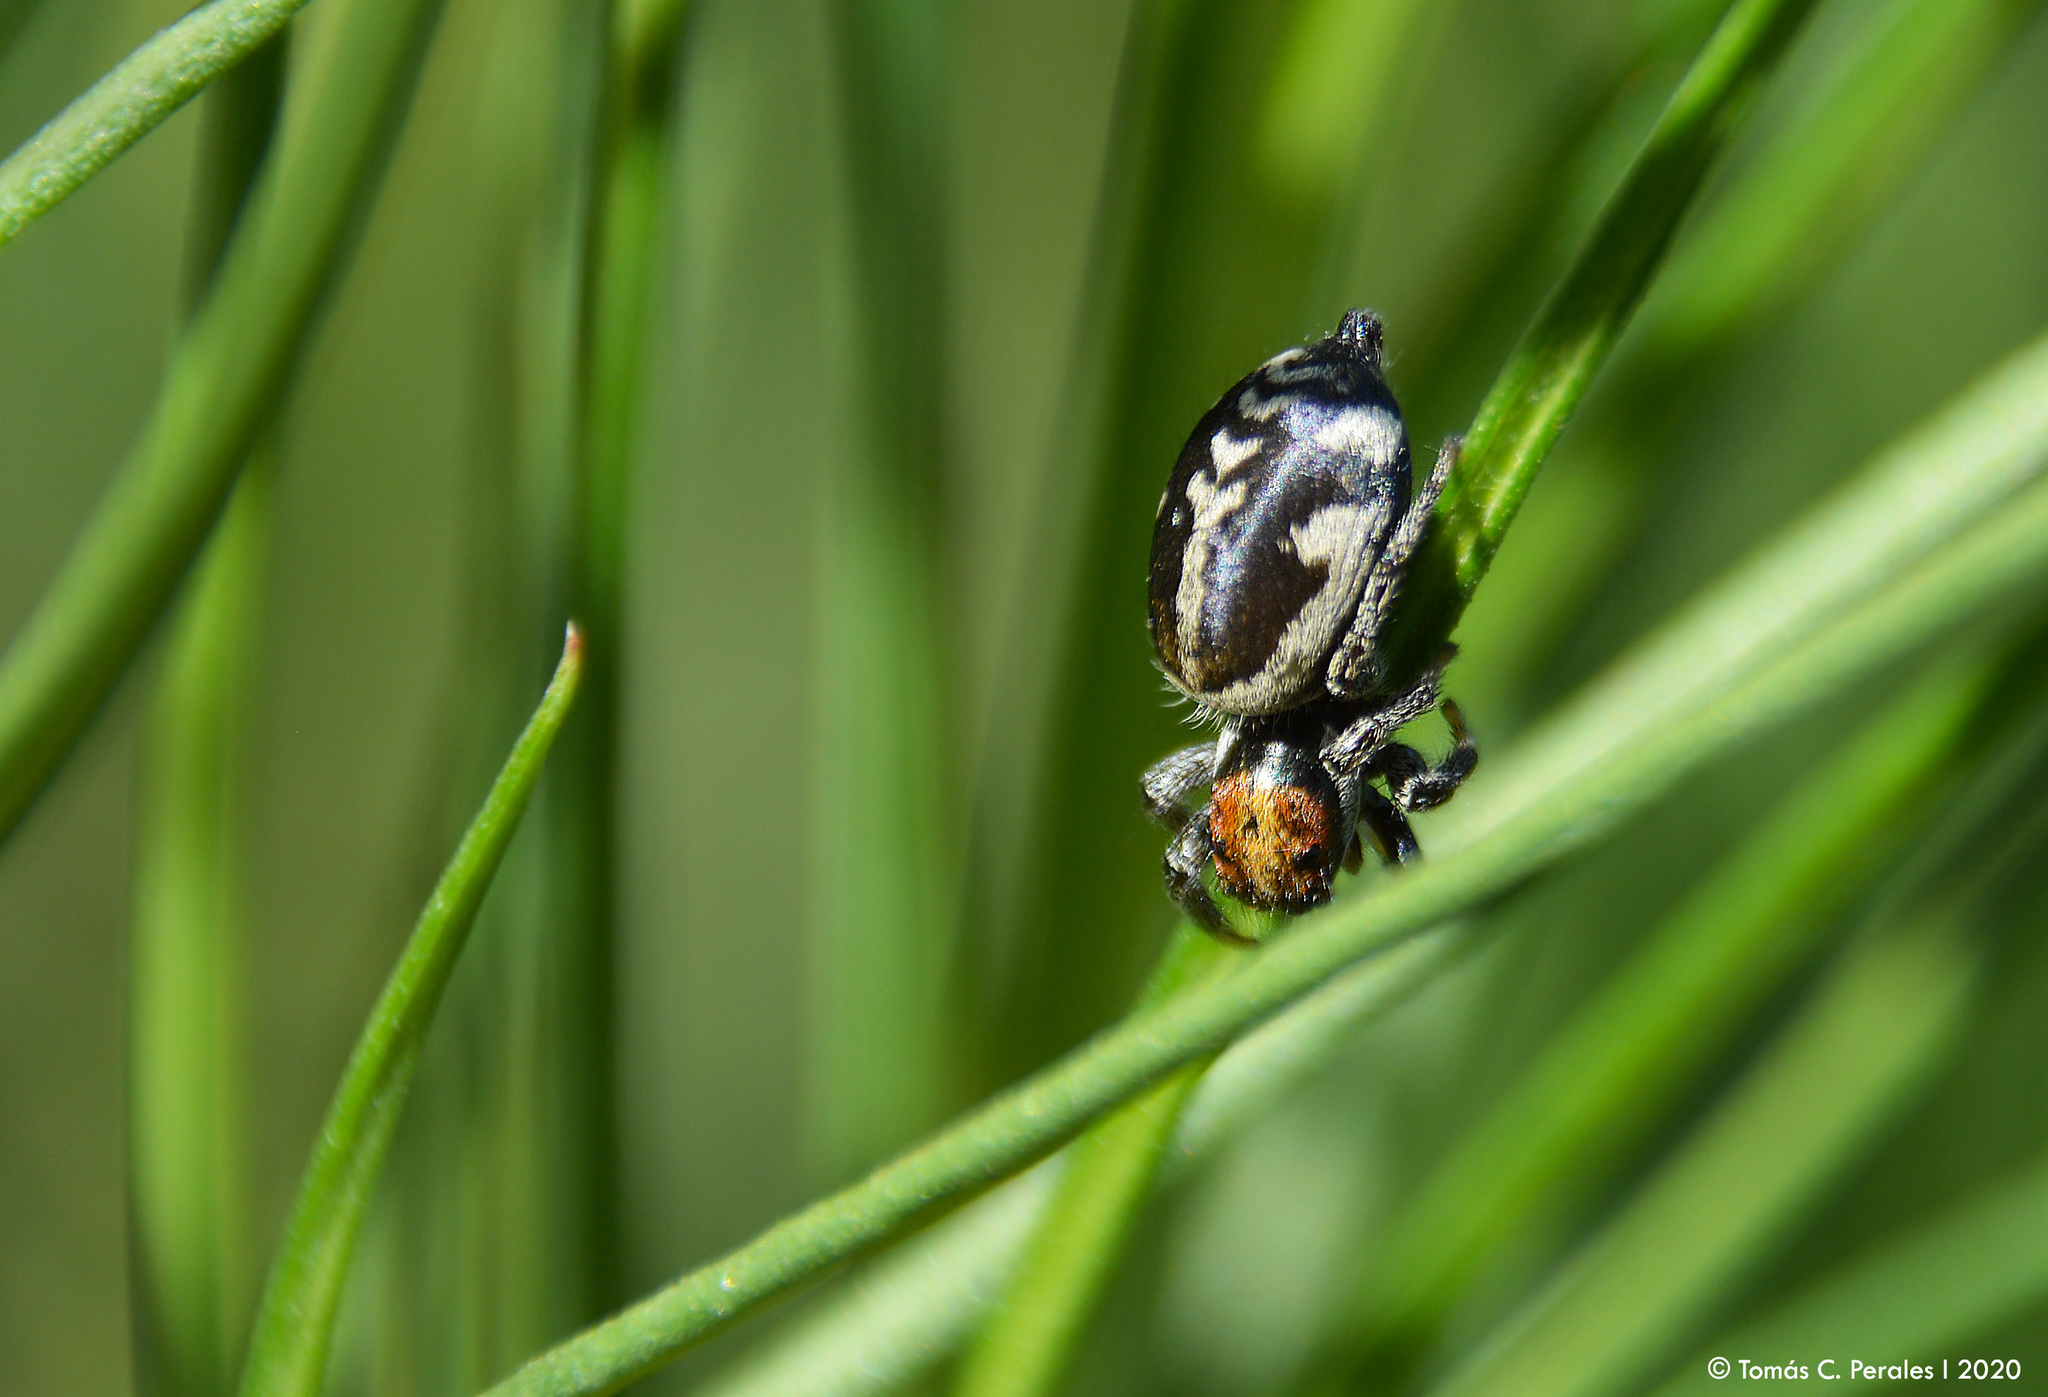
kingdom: Animalia
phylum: Arthropoda
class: Arachnida
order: Araneae
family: Salticidae
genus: Phiale
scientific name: Phiale roburifoliata
